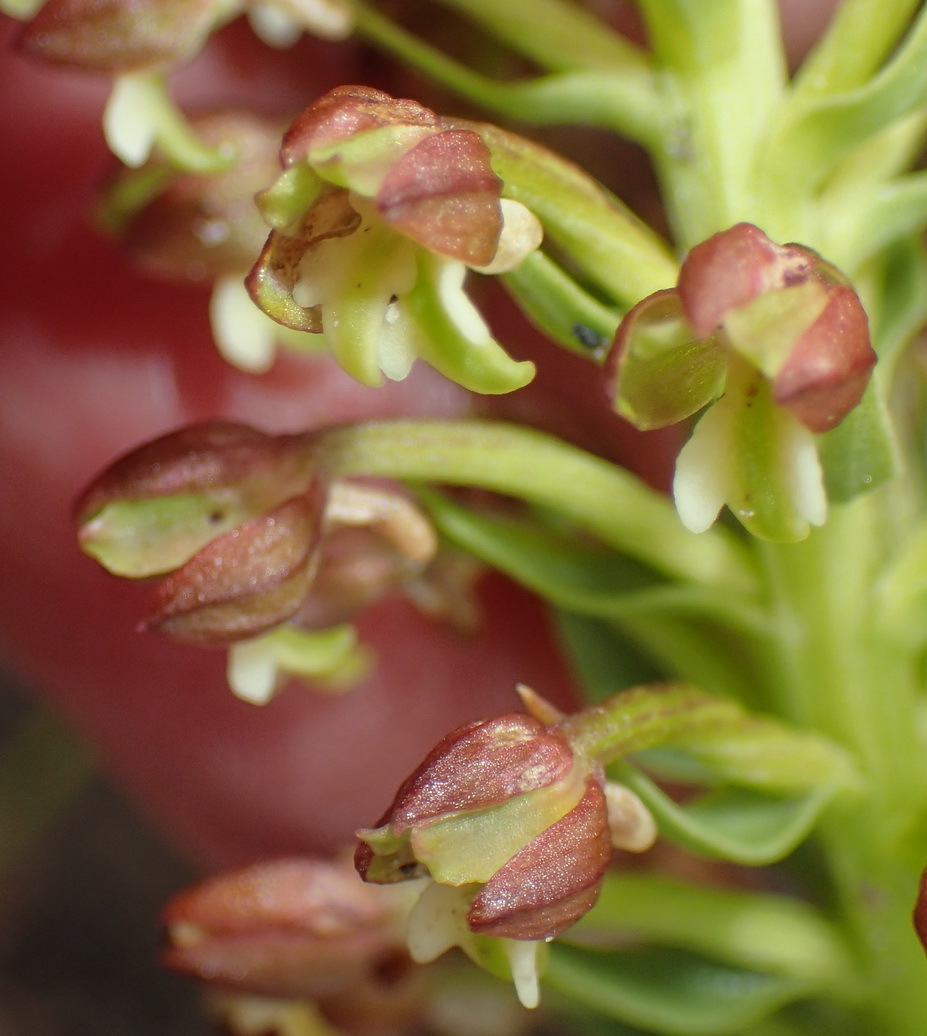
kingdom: Plantae
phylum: Tracheophyta
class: Liliopsida
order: Asparagales
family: Orchidaceae
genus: Brachycorythis
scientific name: Brachycorythis mac-owaniana
